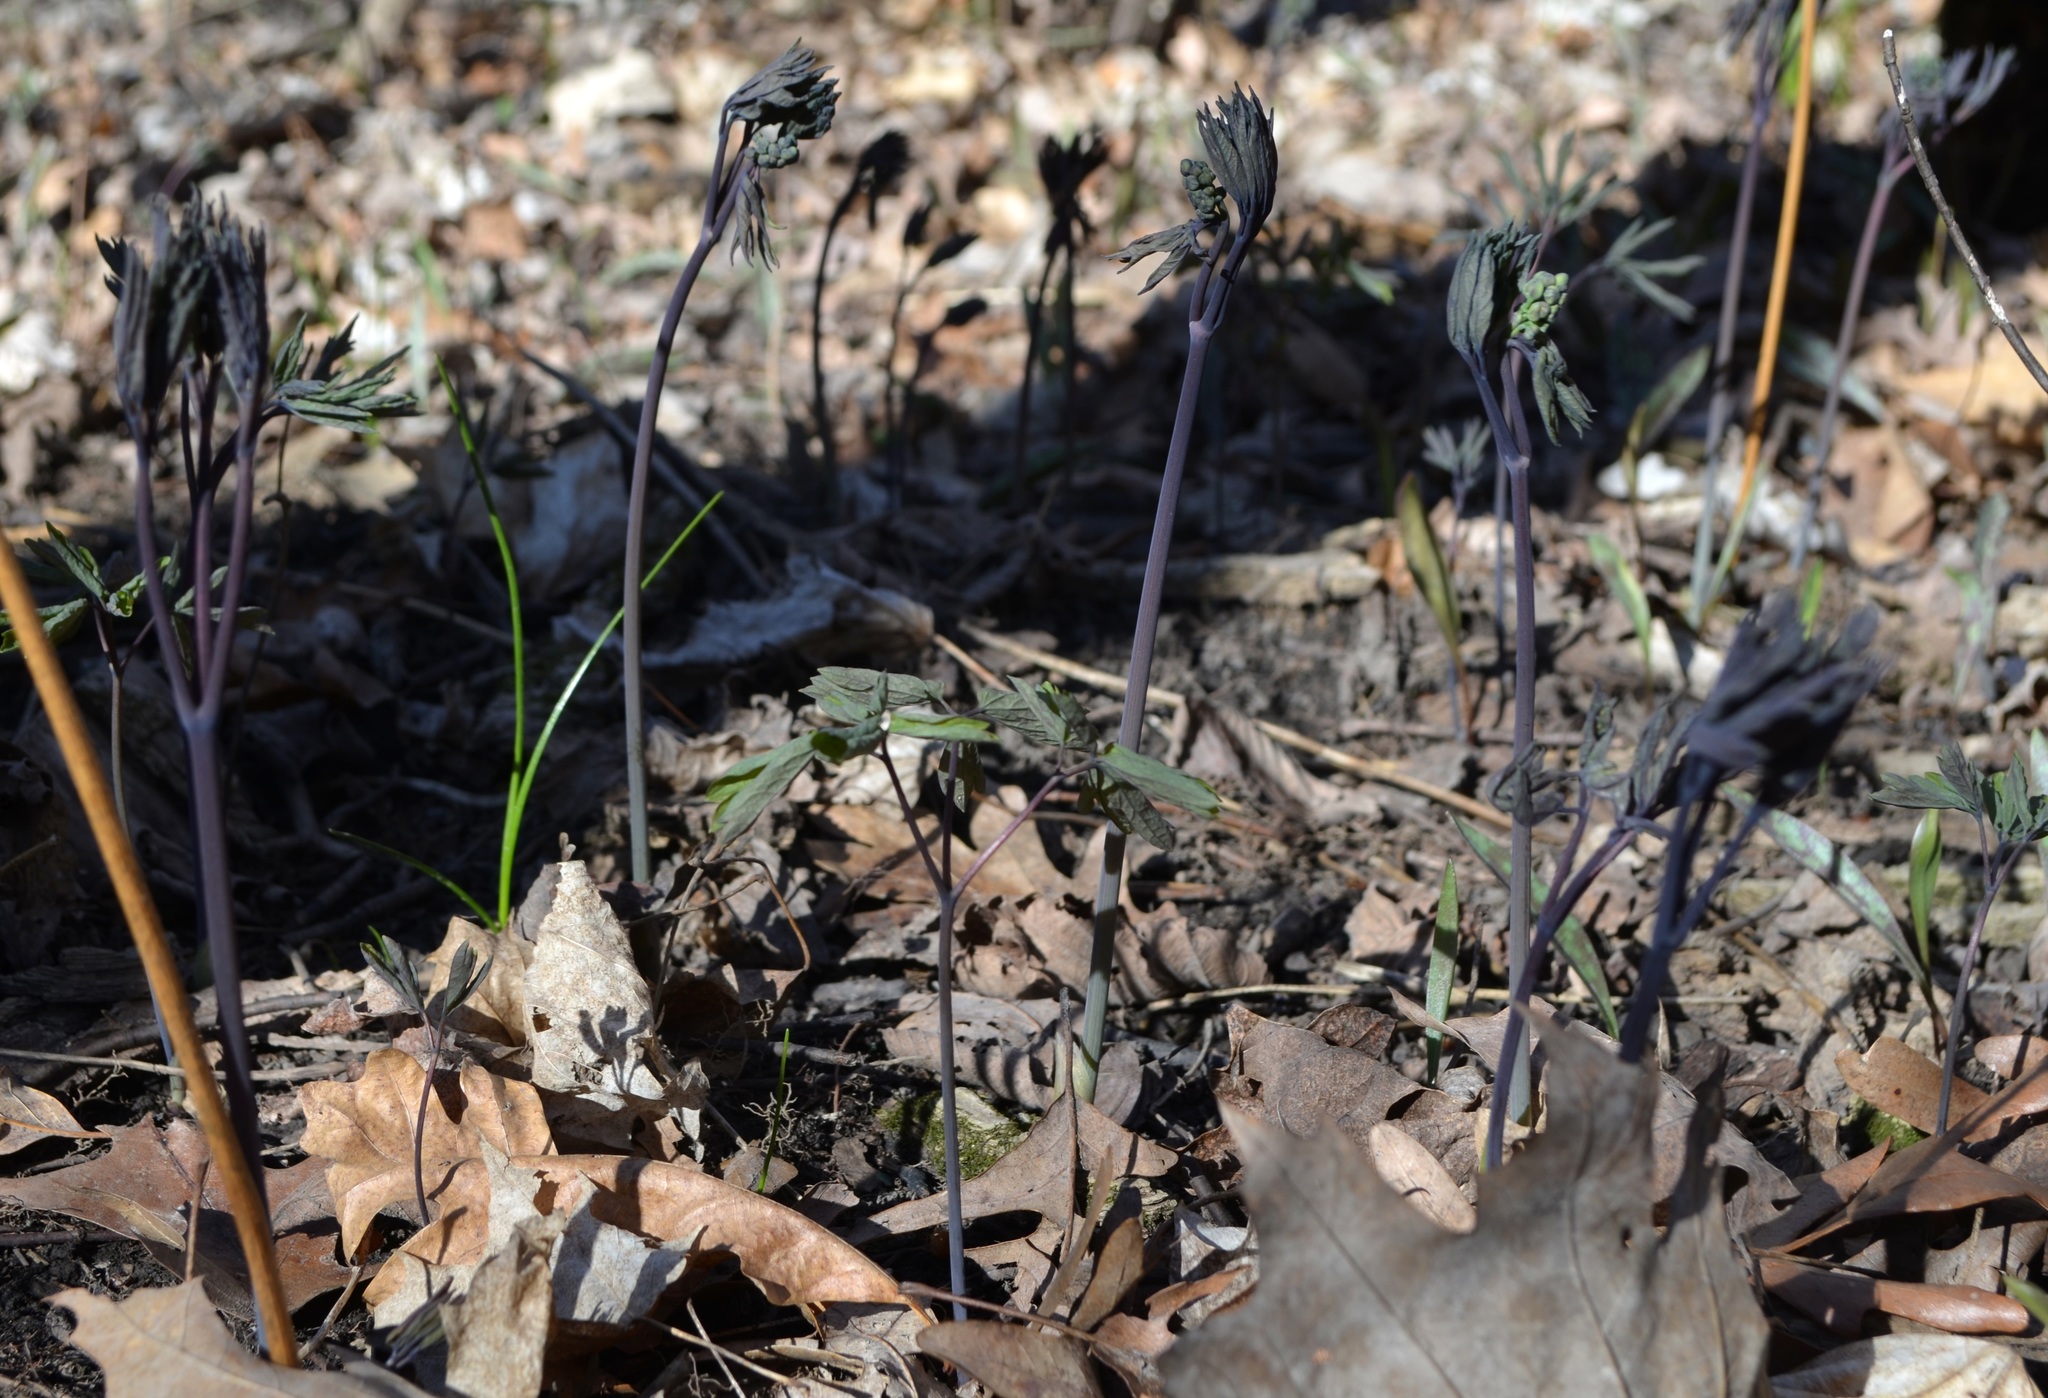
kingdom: Plantae
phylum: Tracheophyta
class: Magnoliopsida
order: Ranunculales
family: Berberidaceae
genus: Caulophyllum
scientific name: Caulophyllum thalictroides
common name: Blue cohosh
